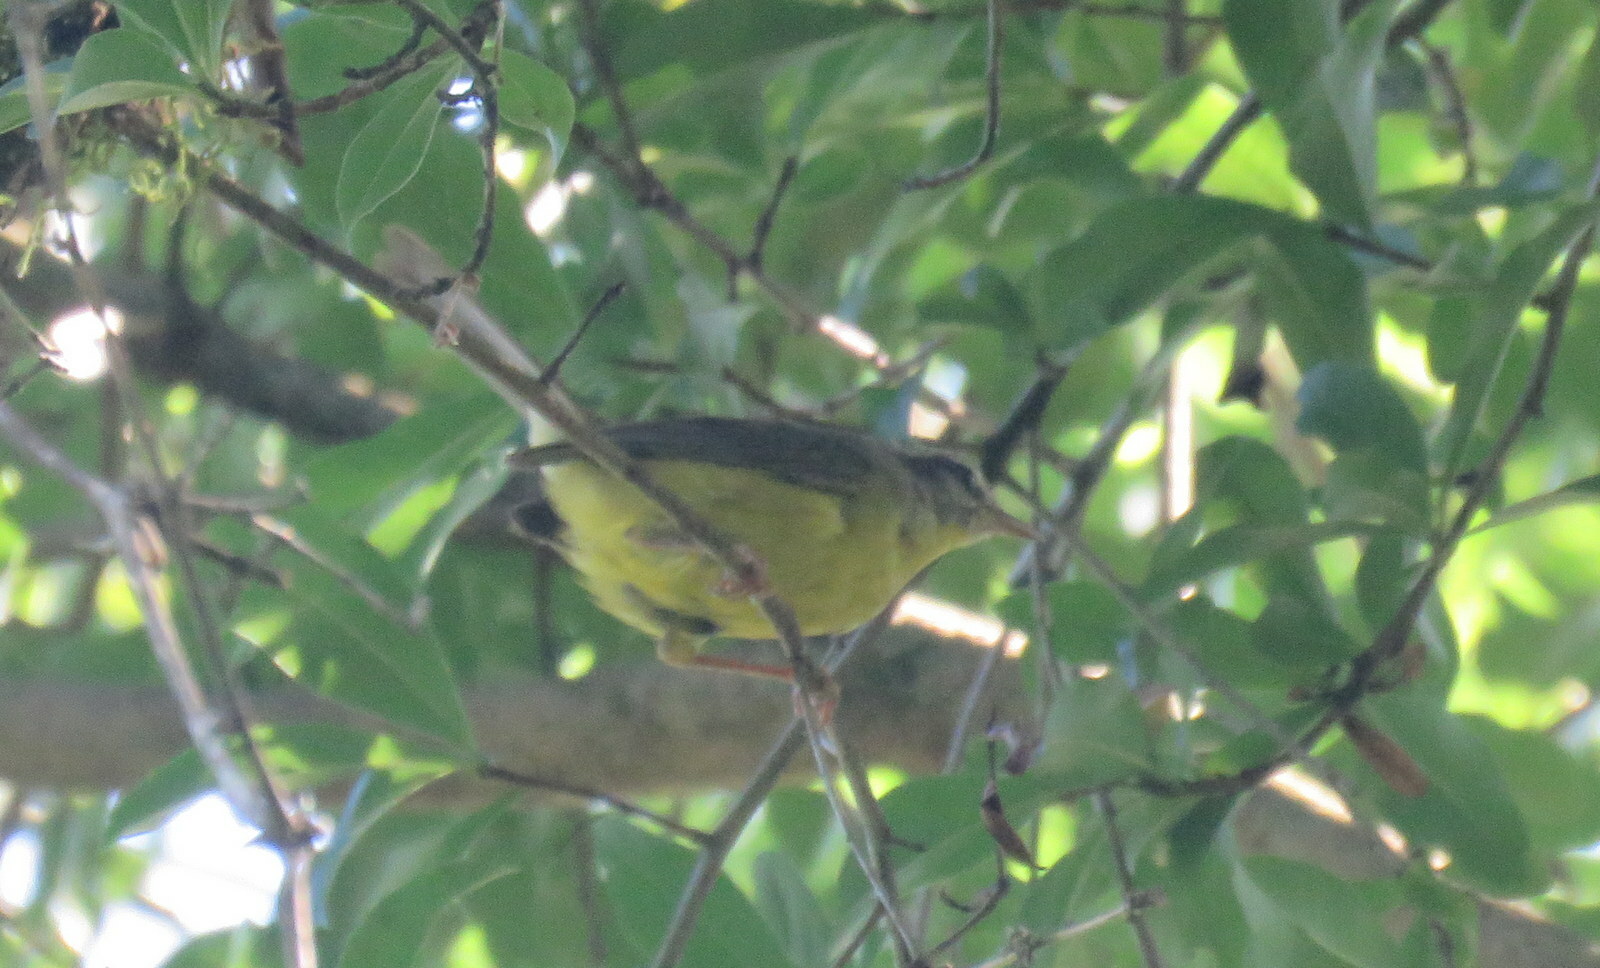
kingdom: Animalia
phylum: Chordata
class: Aves
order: Passeriformes
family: Parulidae
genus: Basileuterus
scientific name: Basileuterus culicivorus
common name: Golden-crowned warbler
